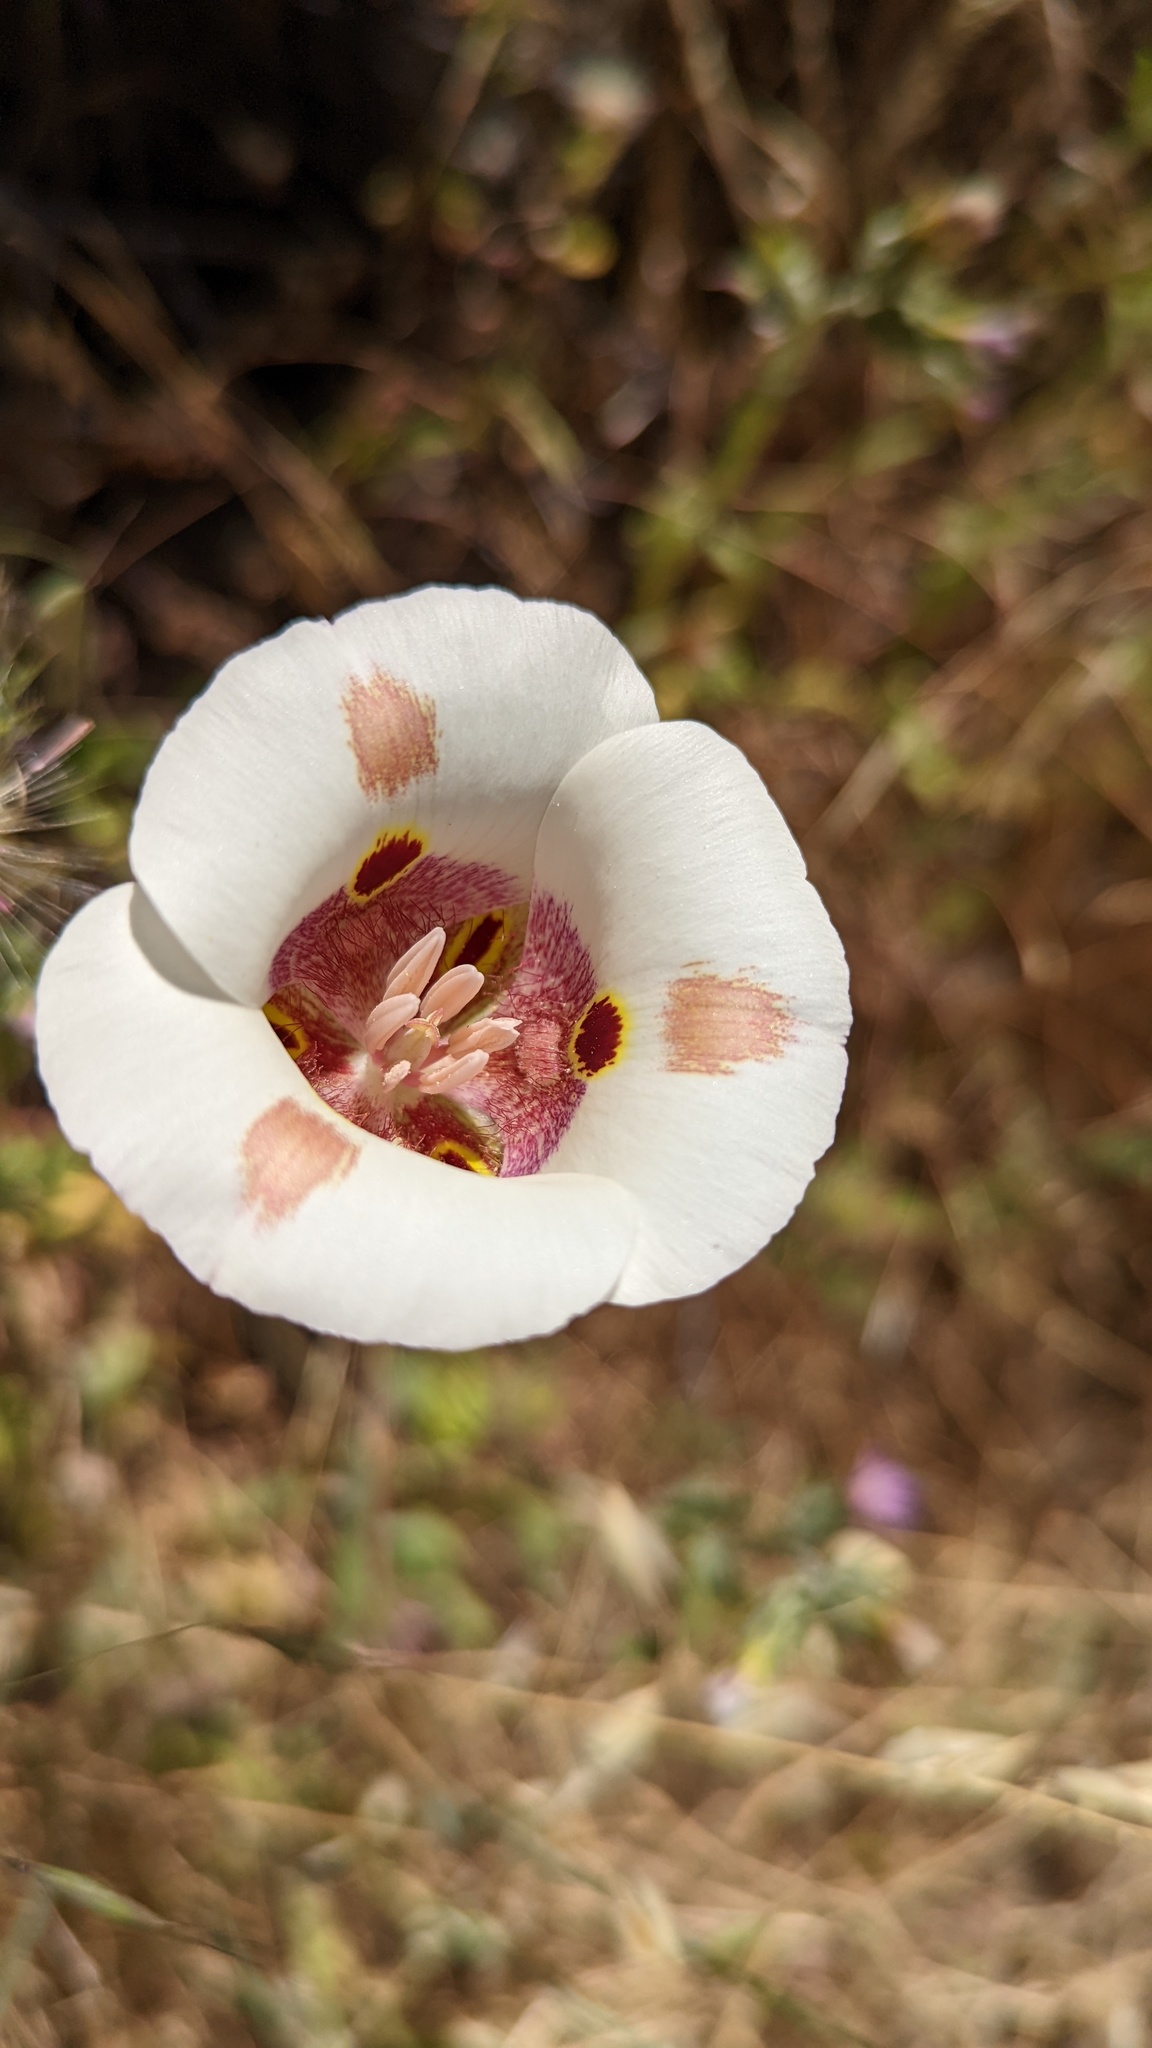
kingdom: Plantae
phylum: Tracheophyta
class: Liliopsida
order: Liliales
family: Liliaceae
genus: Calochortus
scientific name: Calochortus venustus
